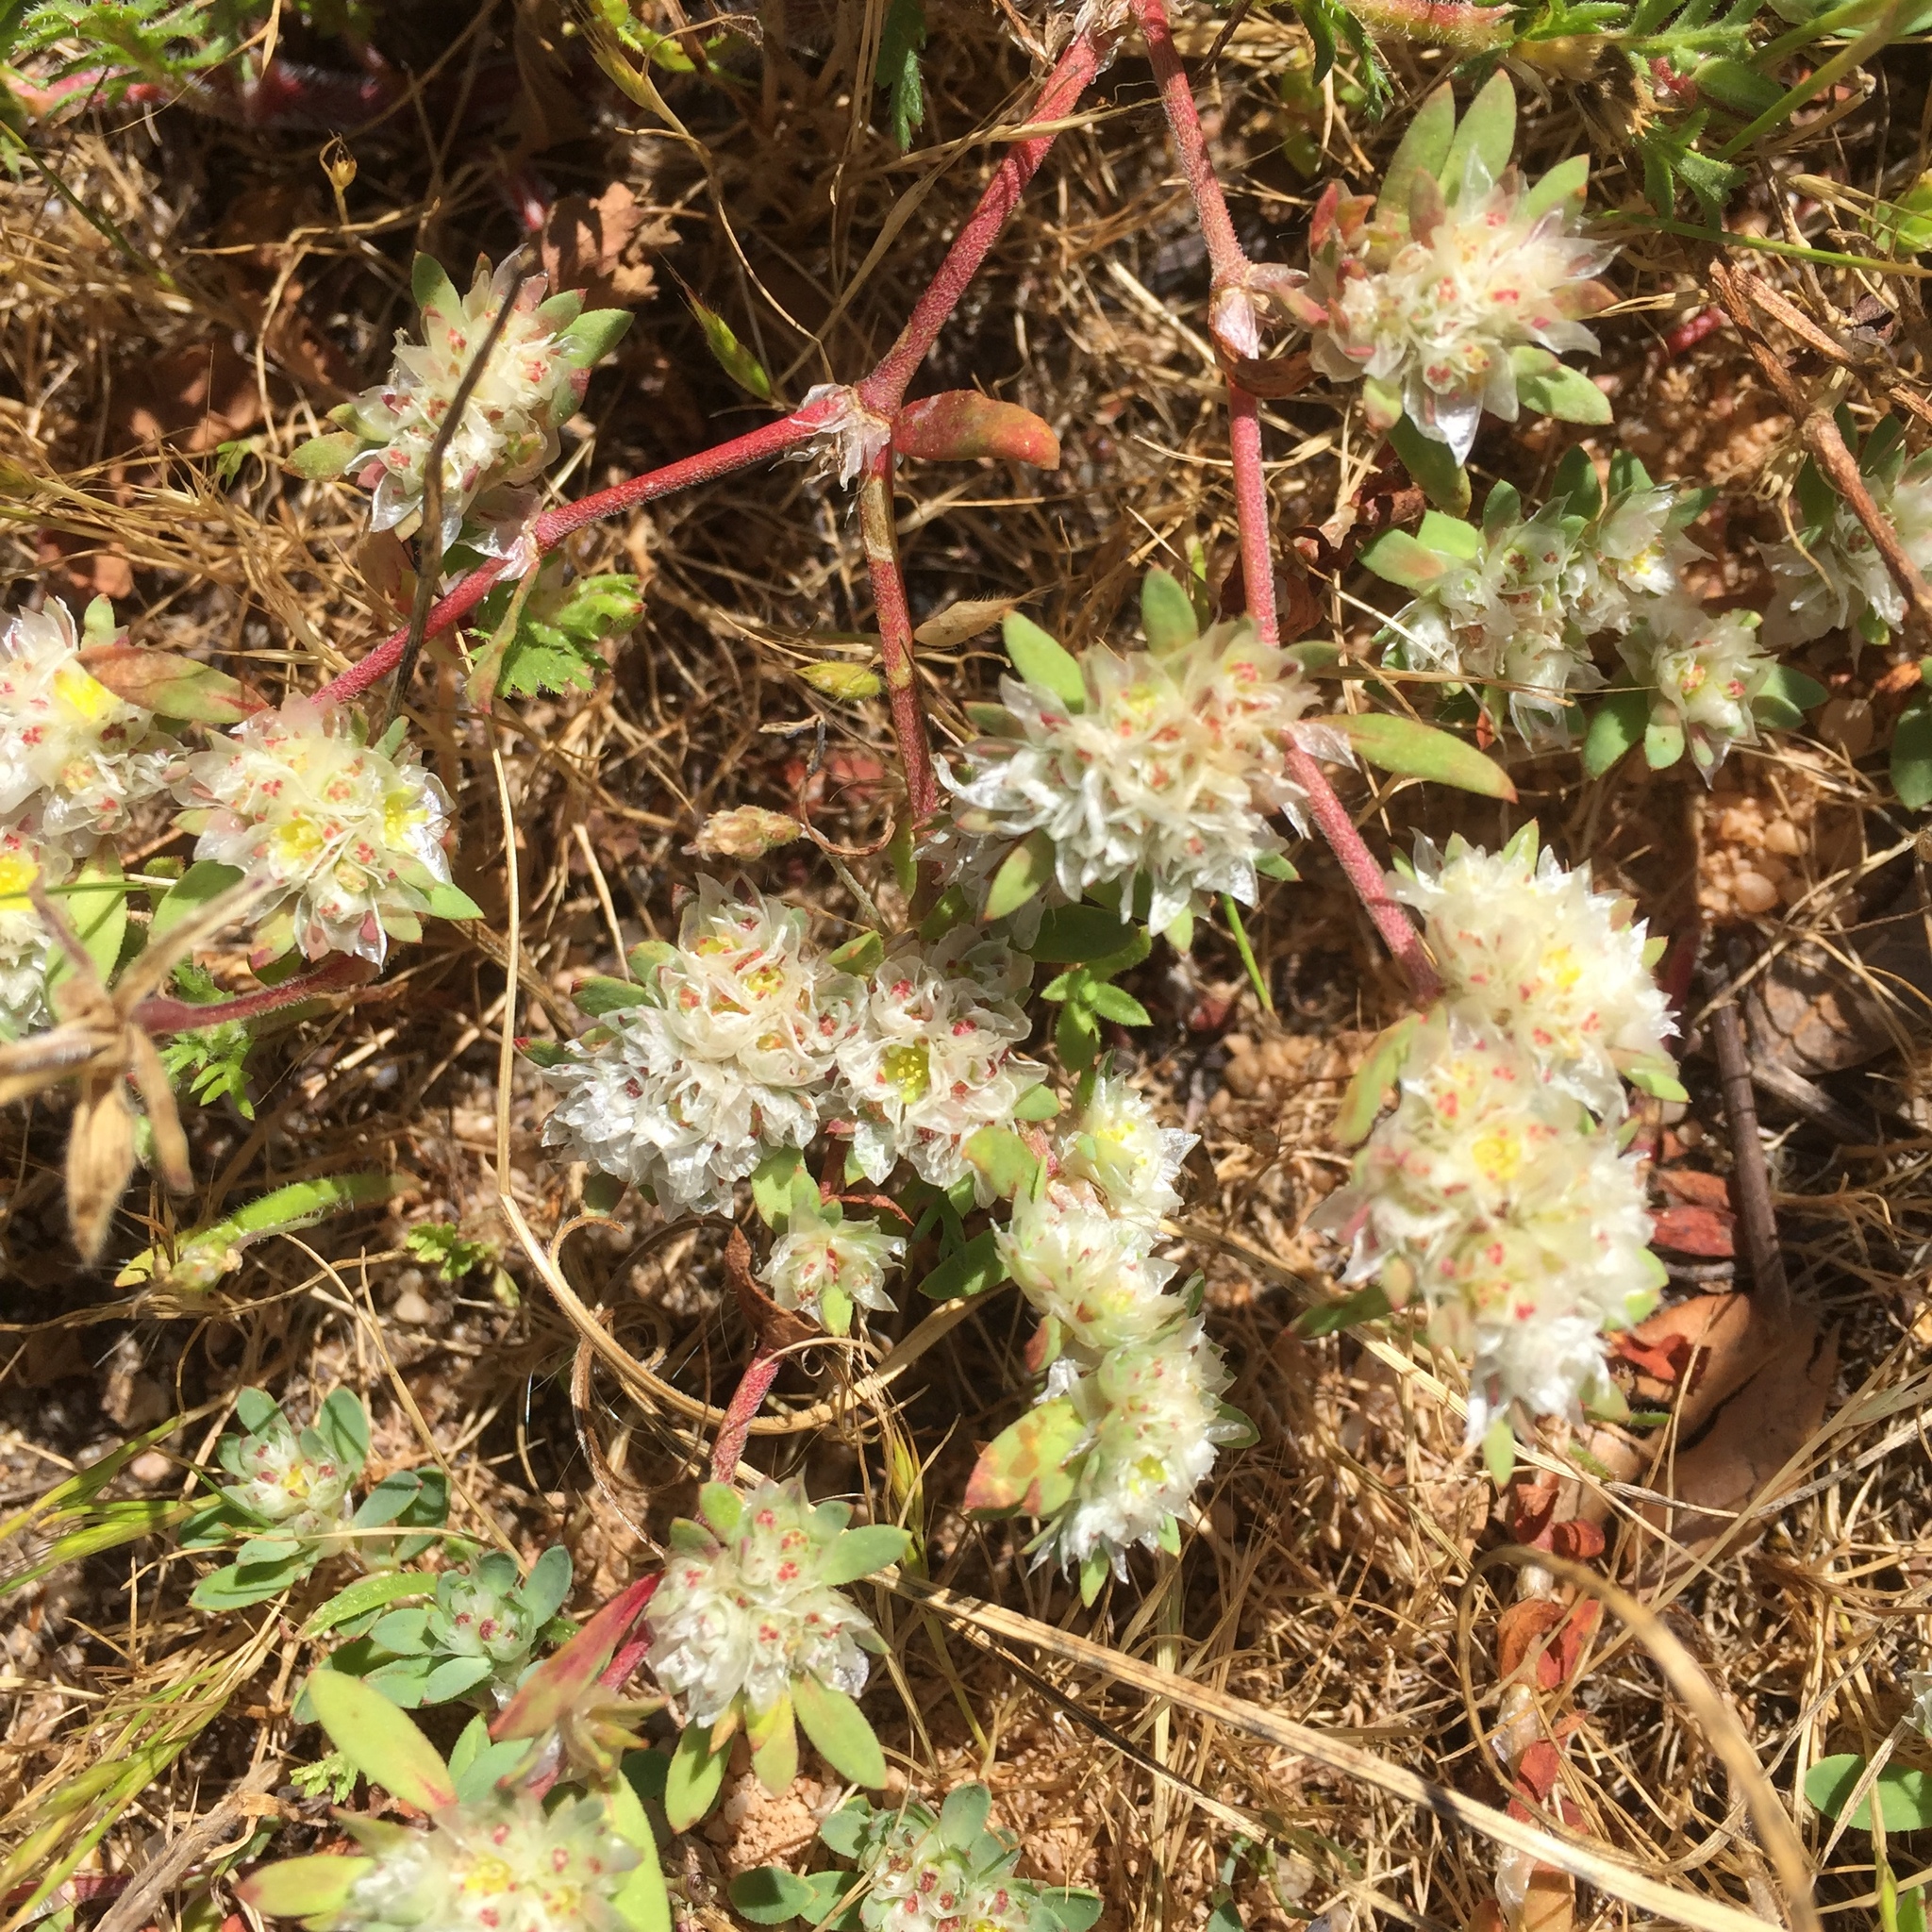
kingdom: Plantae
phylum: Tracheophyta
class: Magnoliopsida
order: Caryophyllales
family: Caryophyllaceae
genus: Paronychia
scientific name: Paronychia argentea
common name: Silver nailroot
